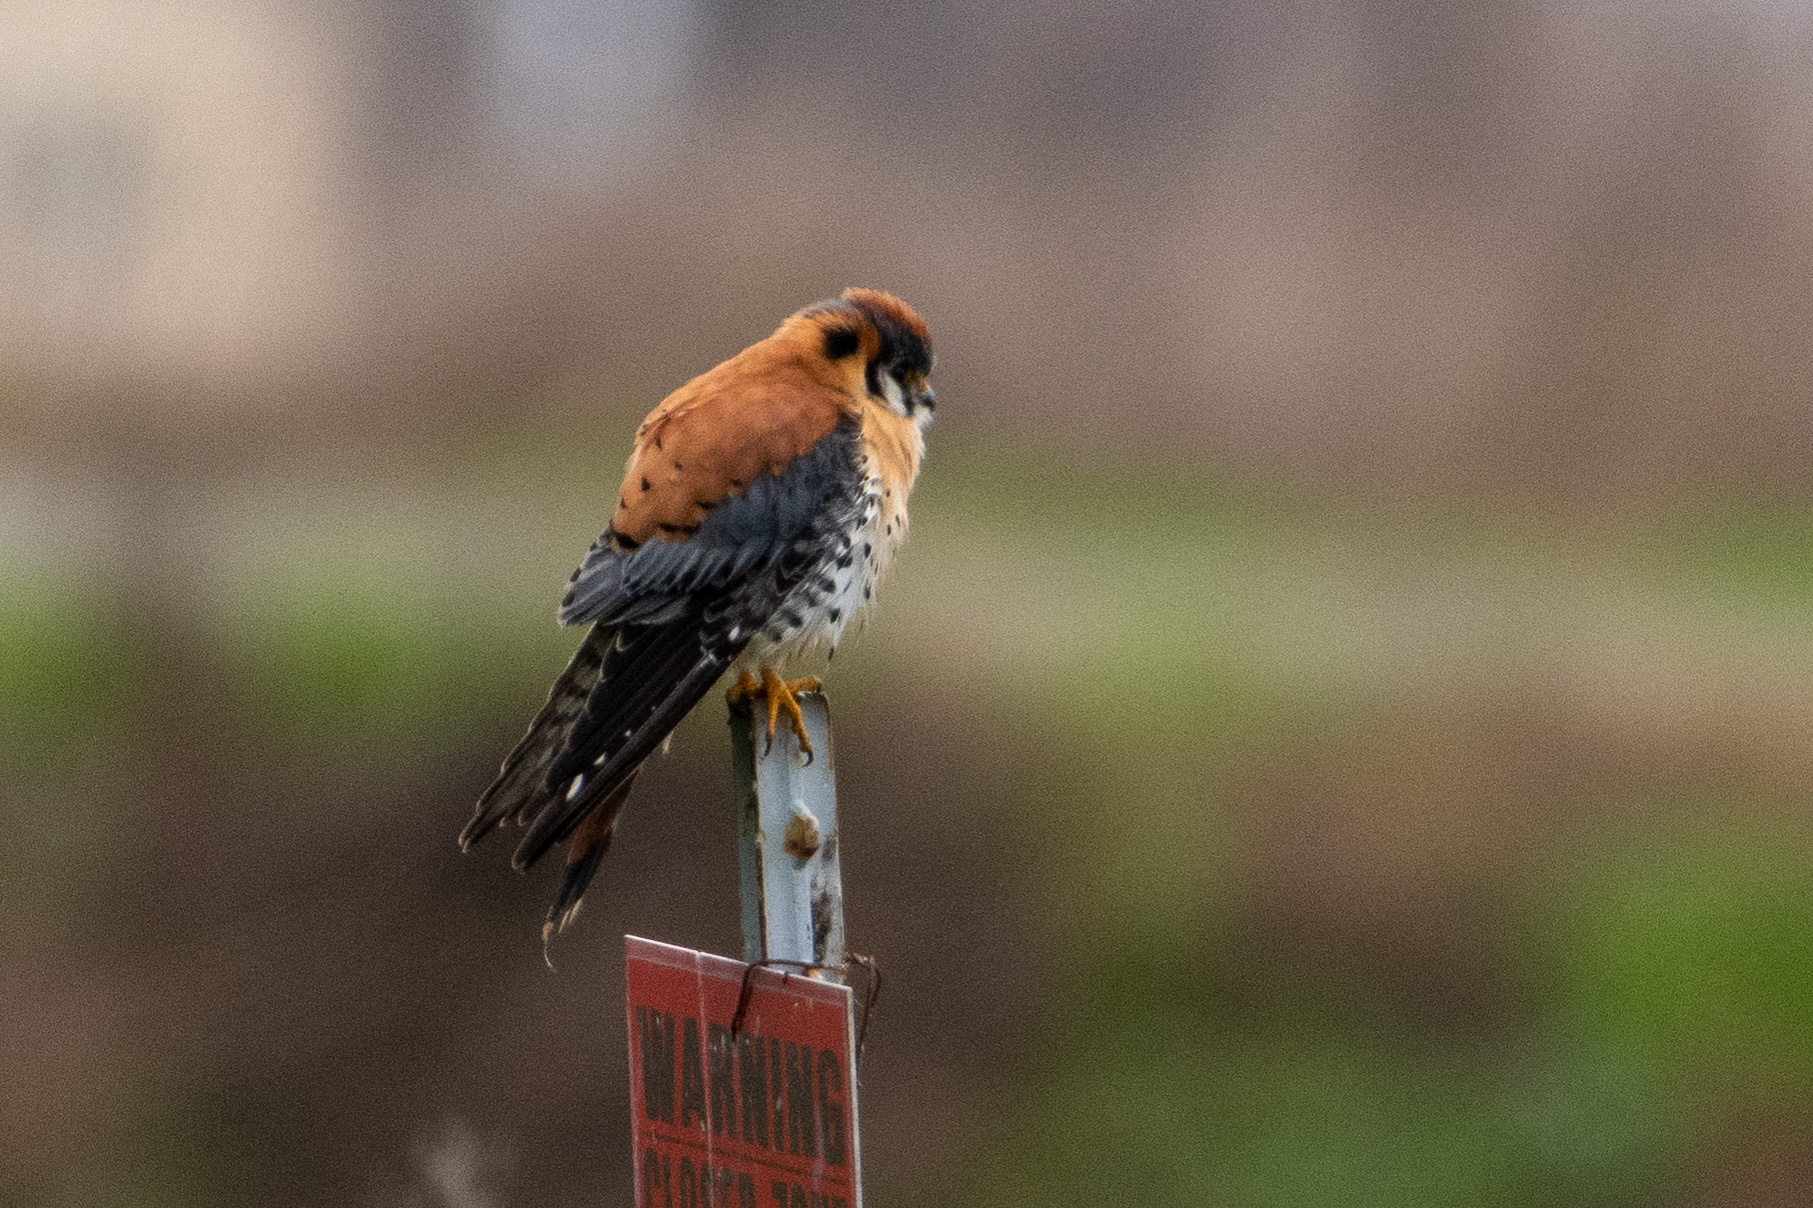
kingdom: Animalia
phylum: Chordata
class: Aves
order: Falconiformes
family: Falconidae
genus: Falco
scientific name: Falco sparverius
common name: American kestrel
